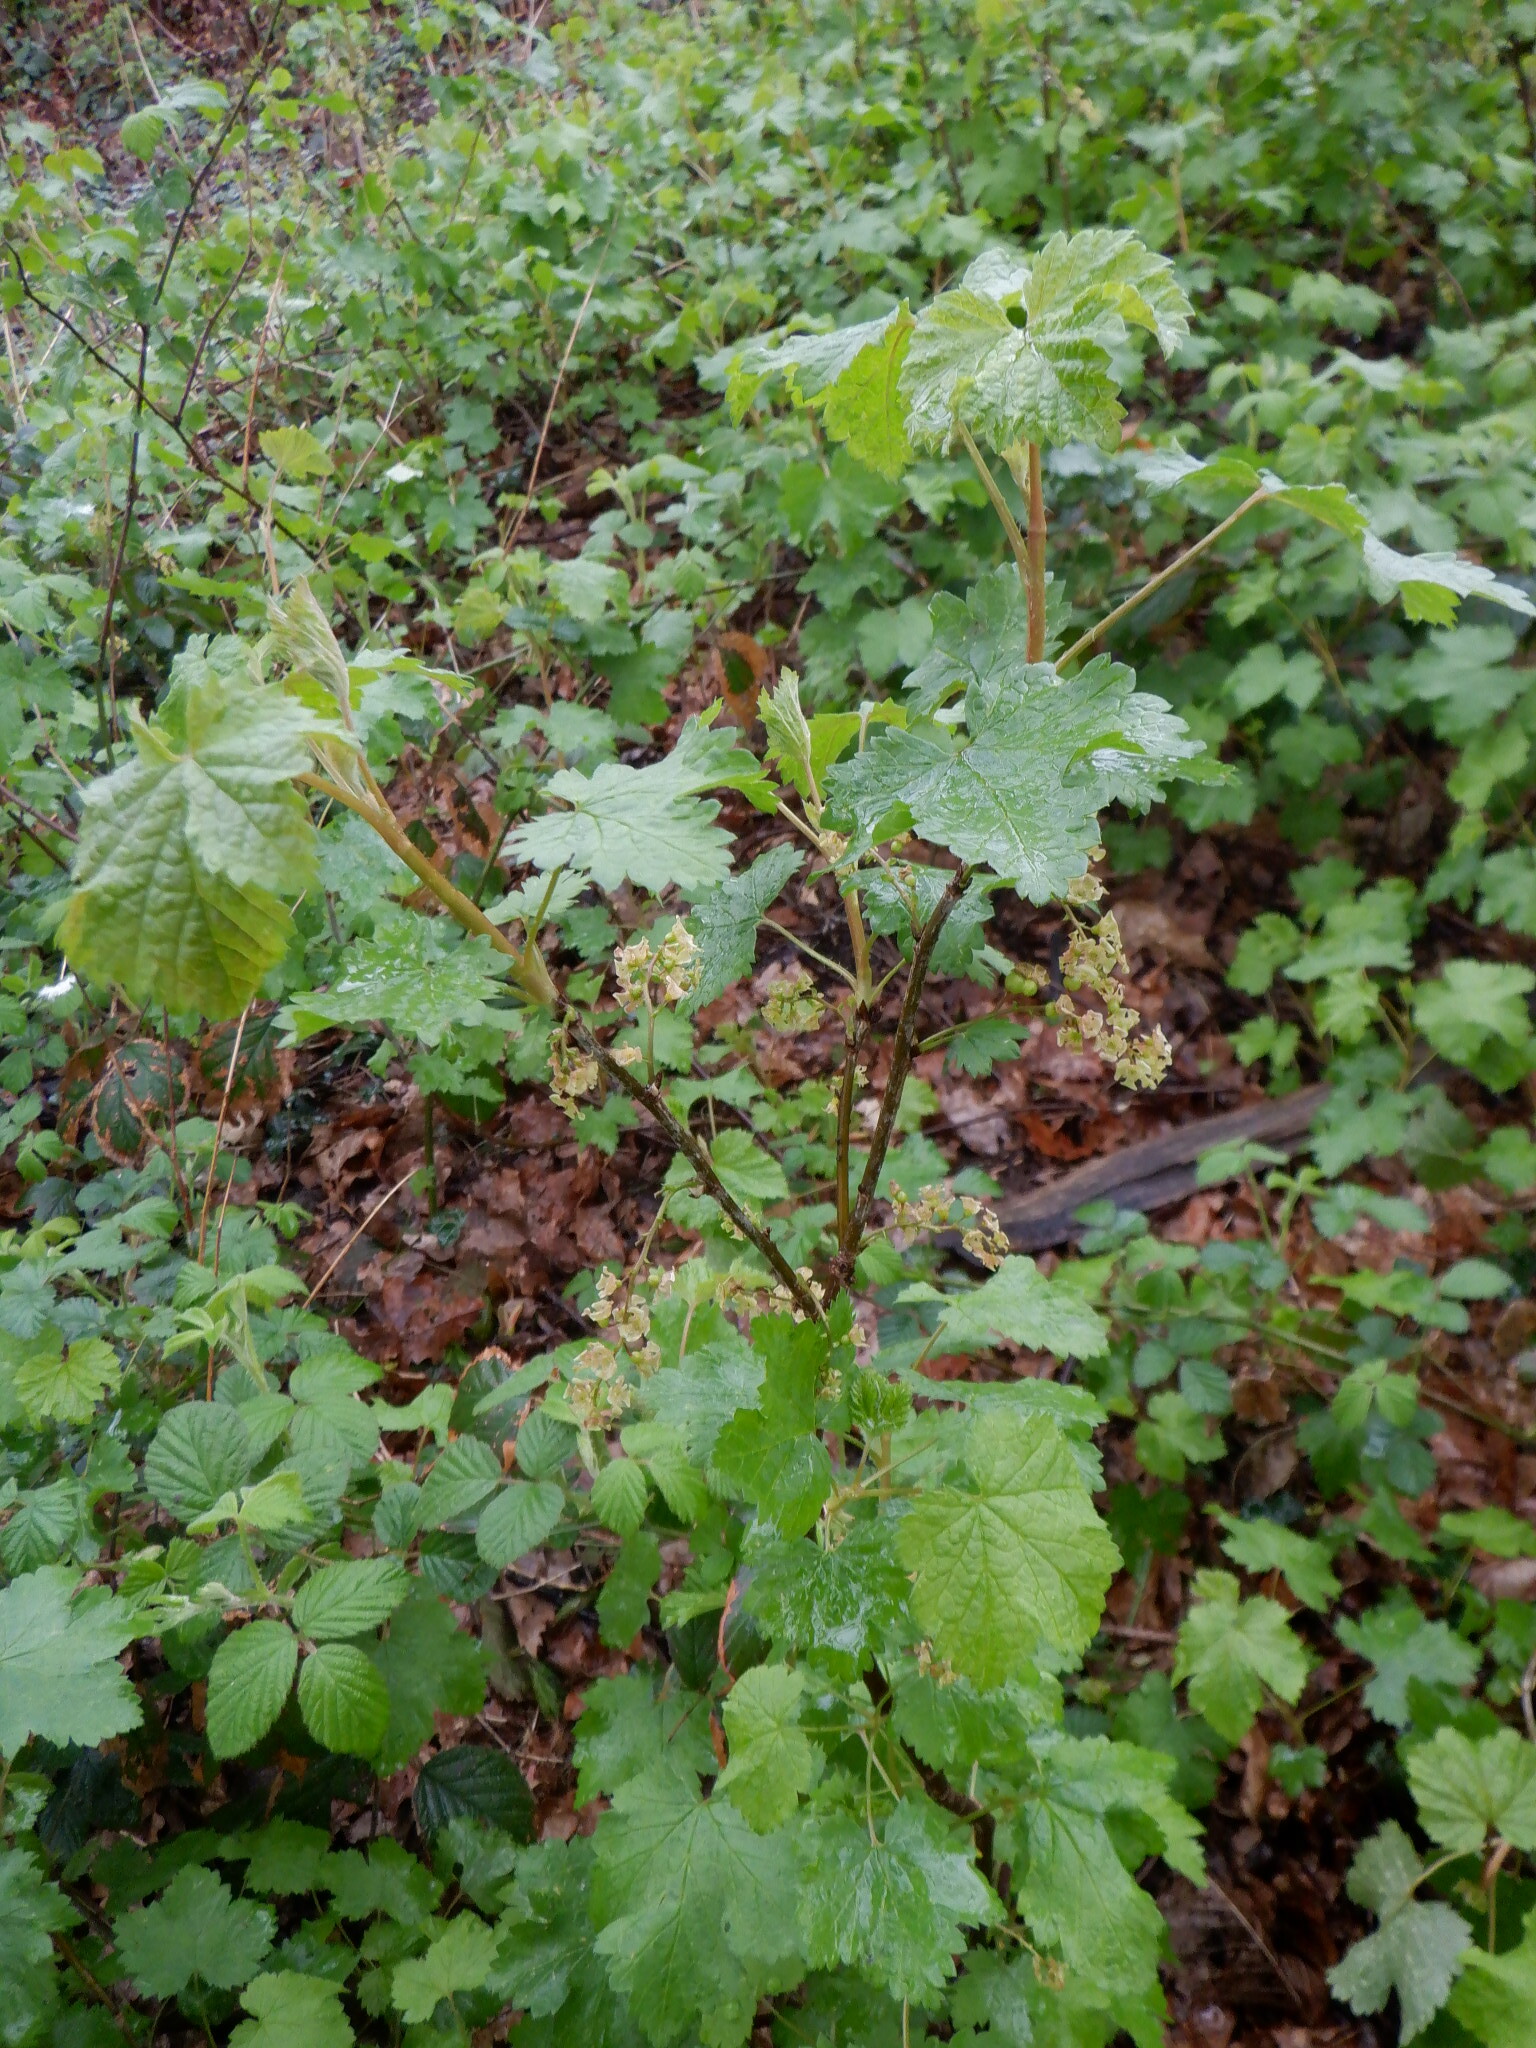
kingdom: Plantae
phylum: Tracheophyta
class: Magnoliopsida
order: Saxifragales
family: Grossulariaceae
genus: Ribes
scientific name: Ribes rubrum
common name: Red currant
